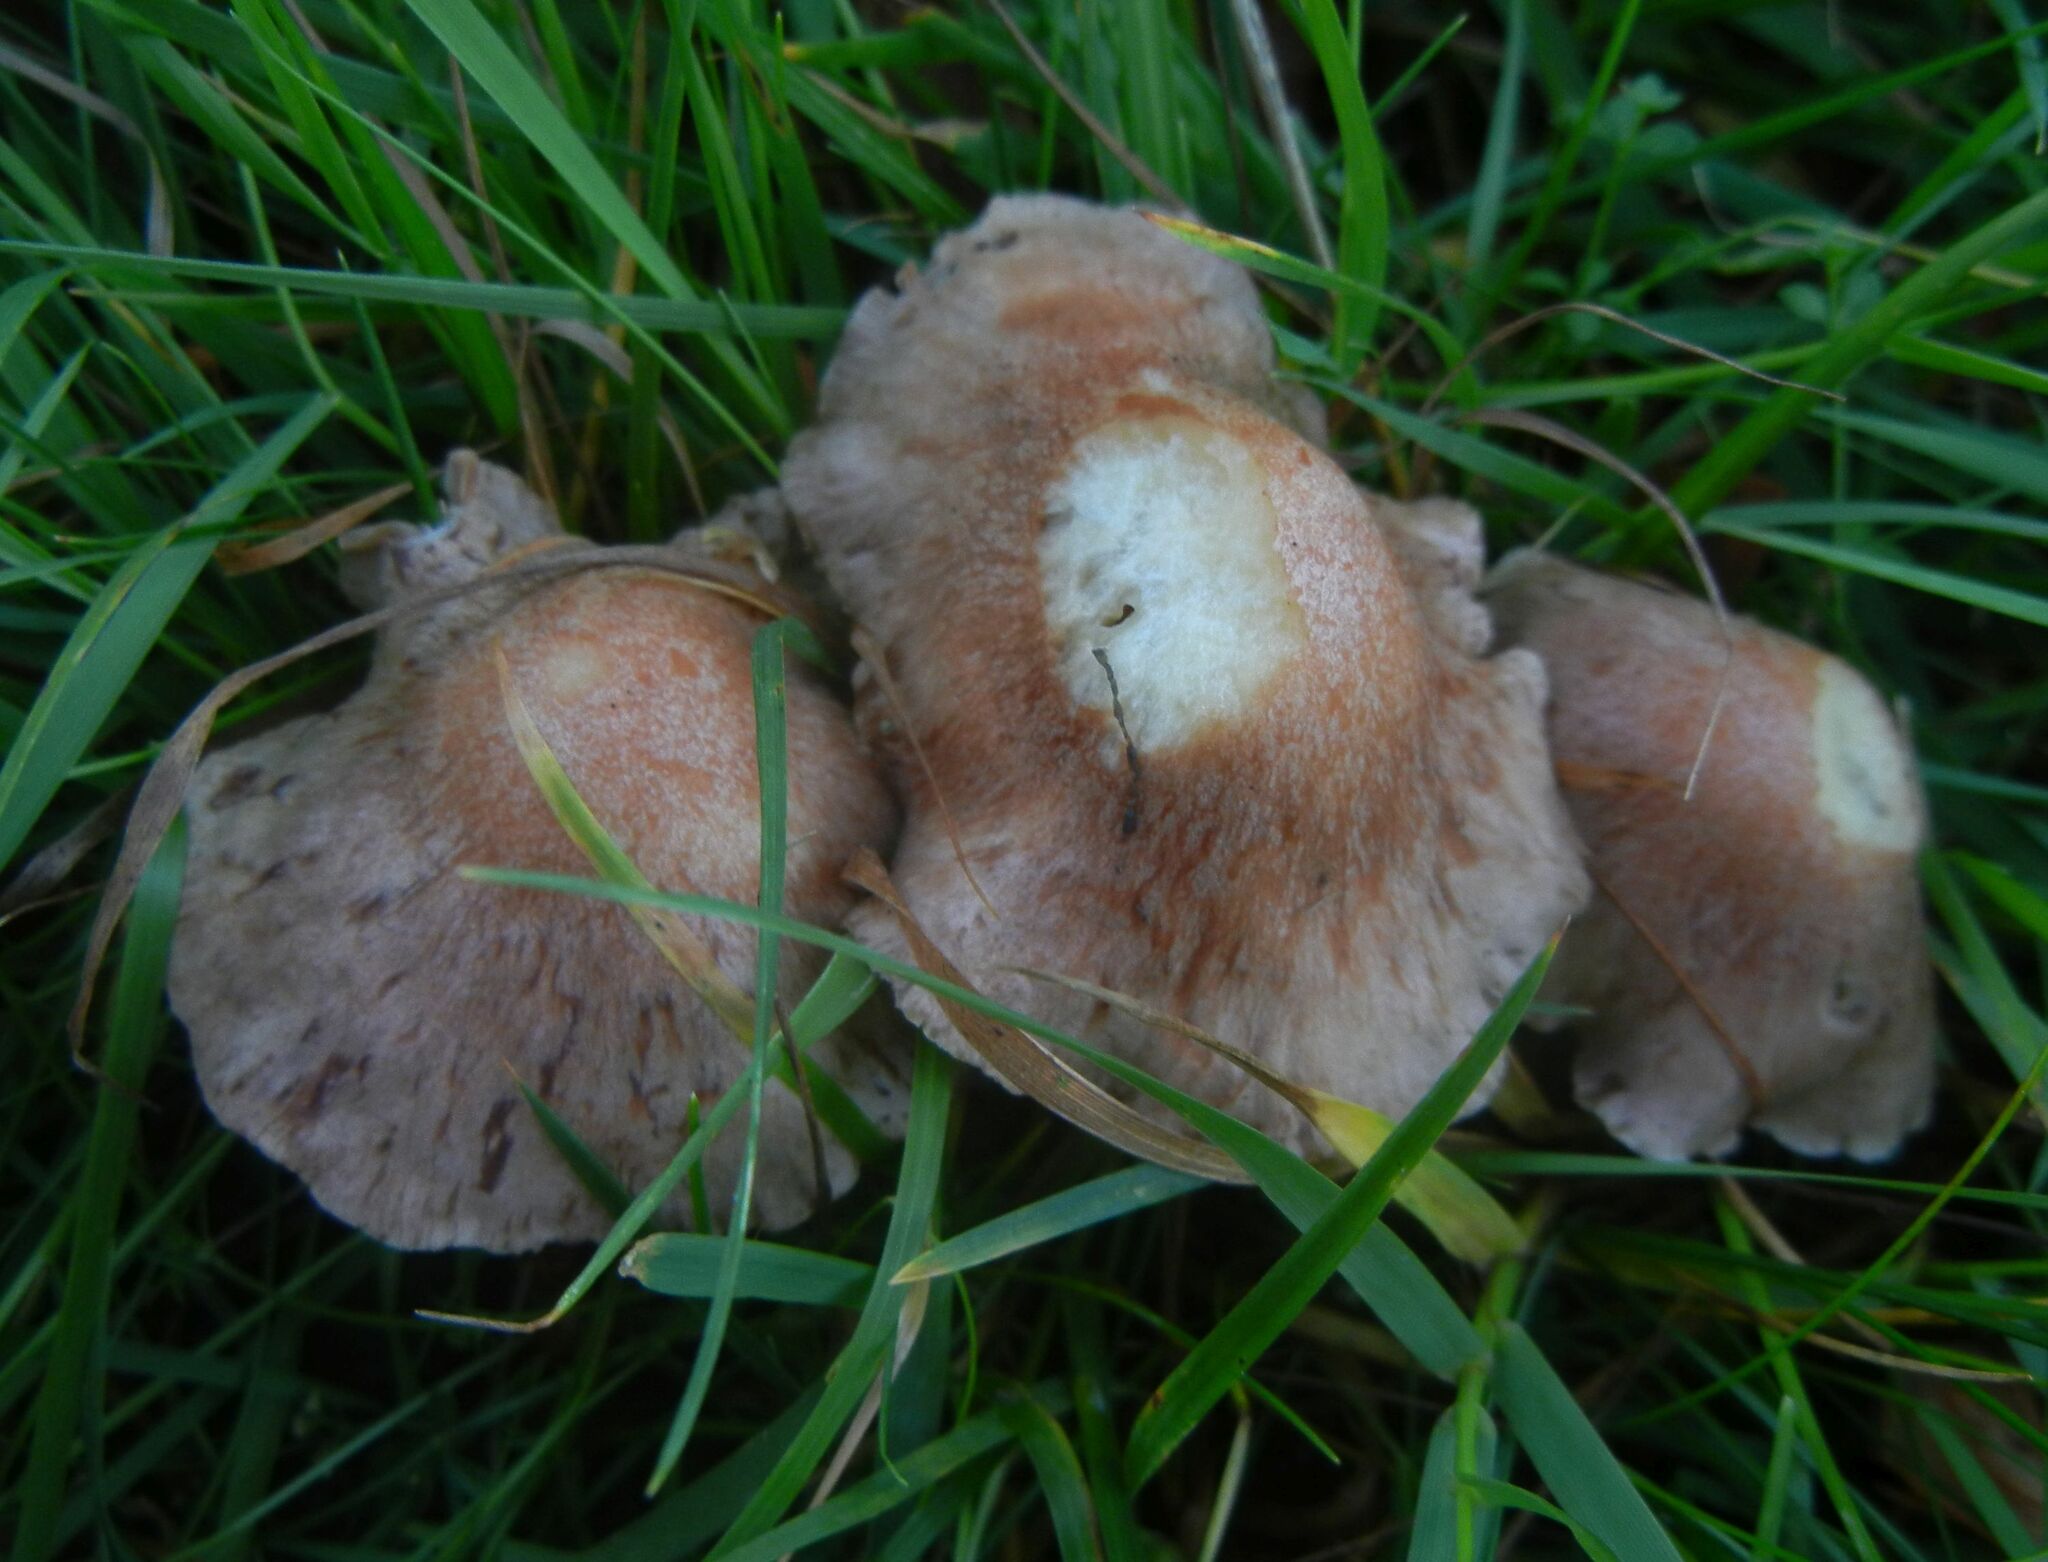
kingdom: Fungi
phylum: Basidiomycota
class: Agaricomycetes
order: Agaricales
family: Omphalotaceae
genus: Collybiopsis
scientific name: Collybiopsis peronata
